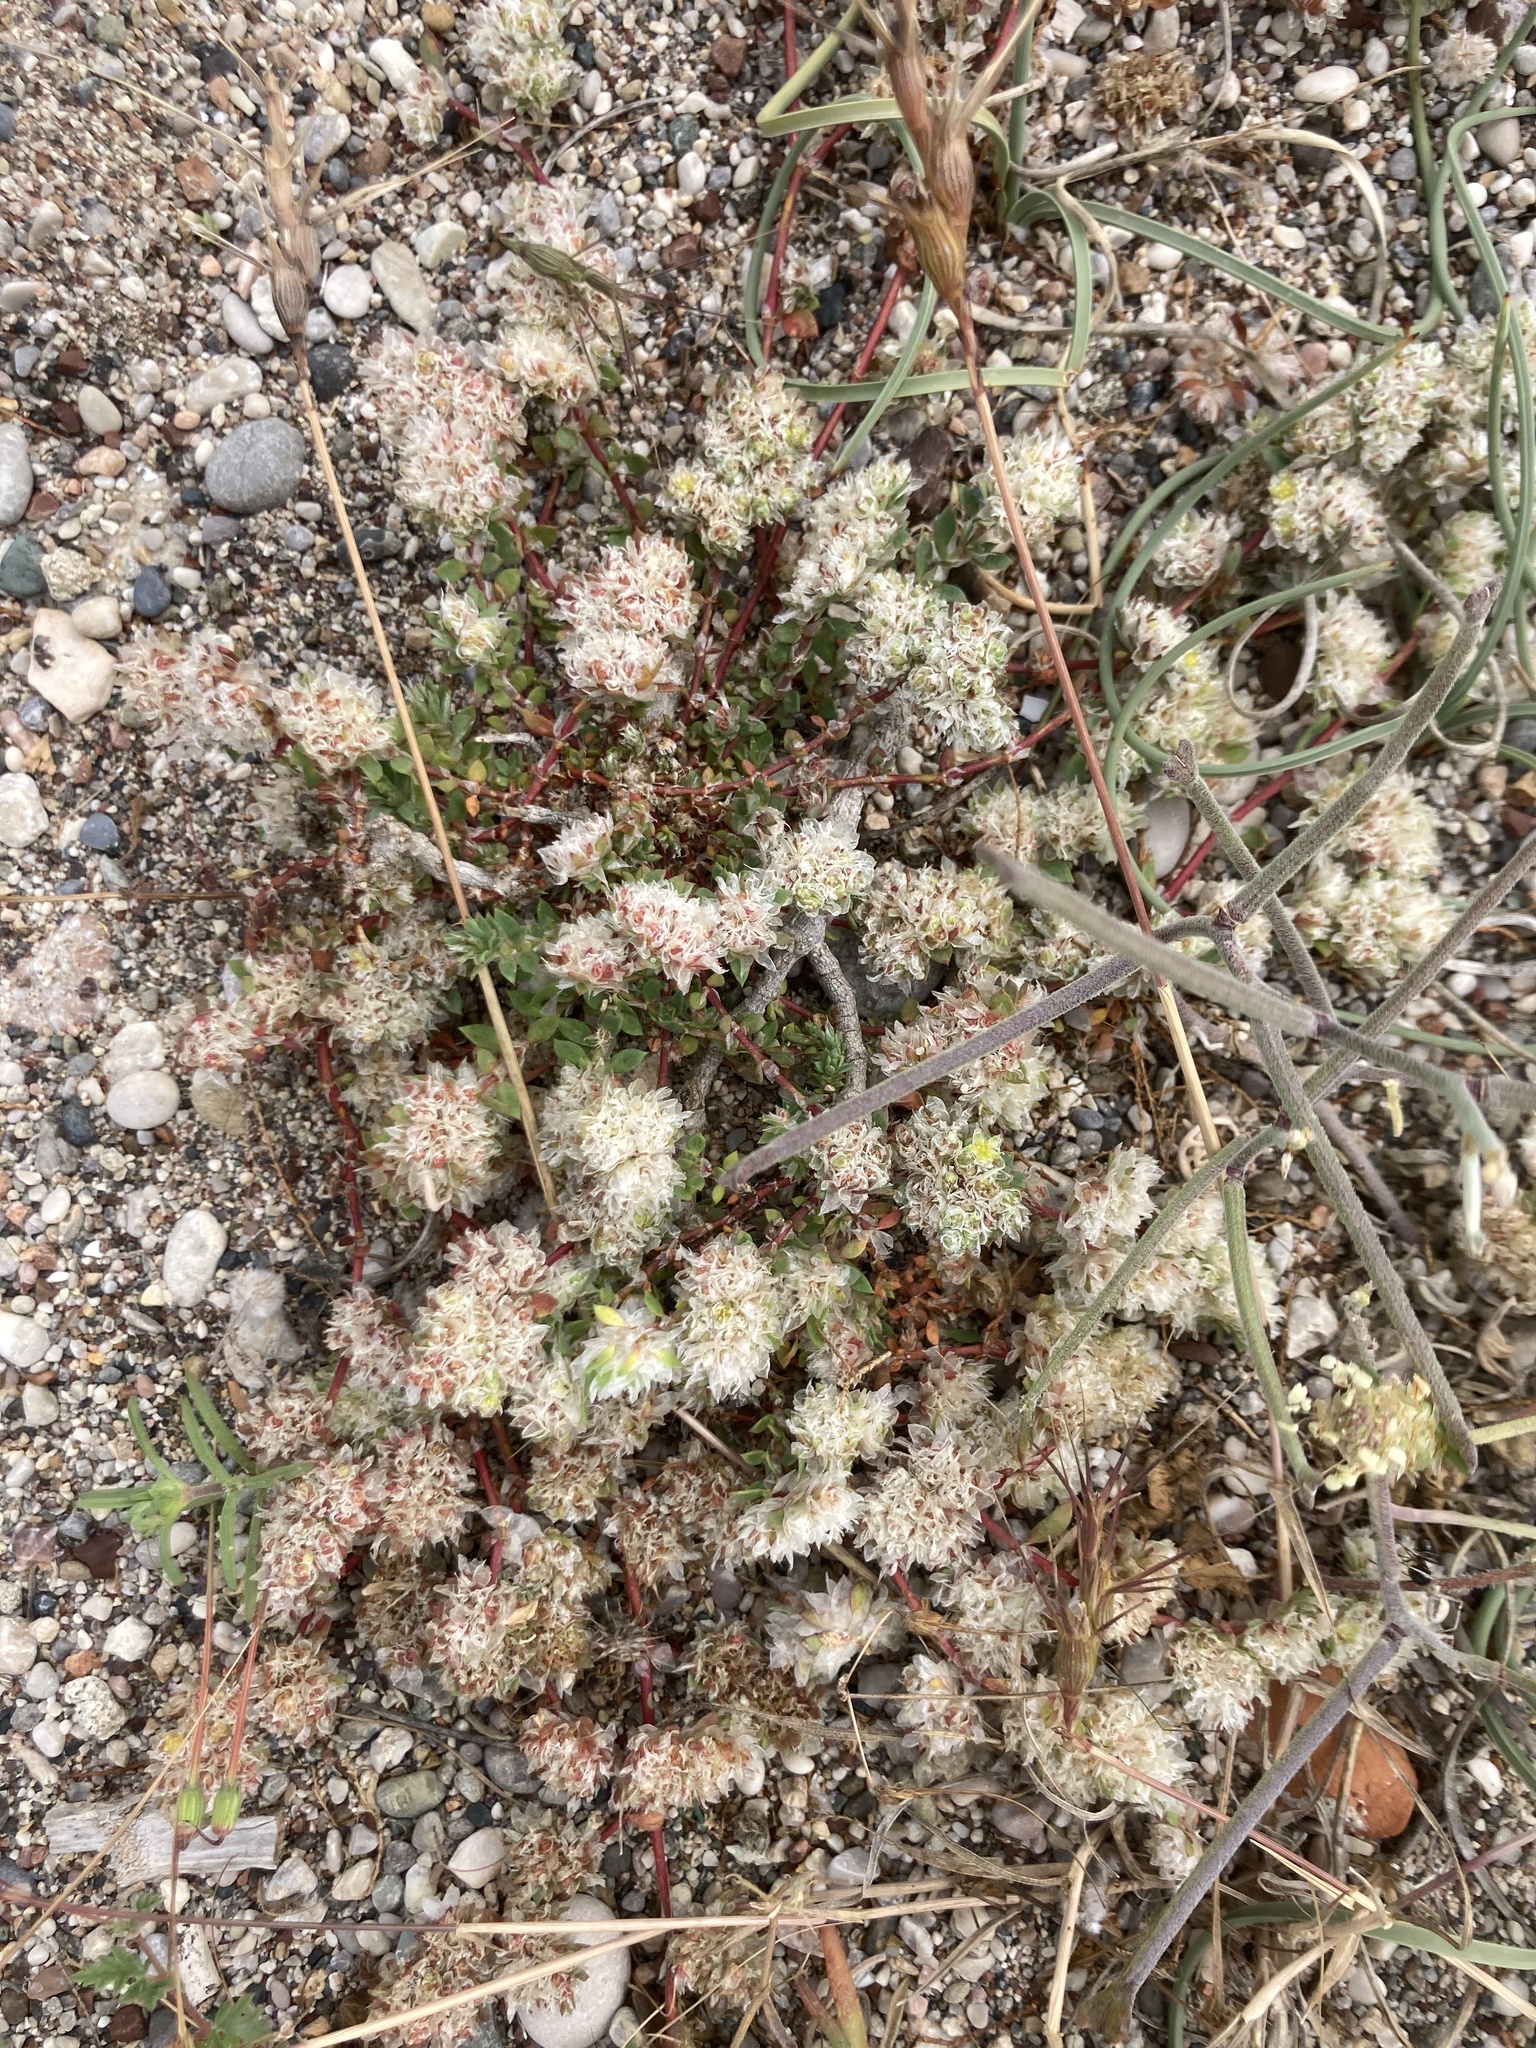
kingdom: Plantae
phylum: Tracheophyta
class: Magnoliopsida
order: Caryophyllales
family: Caryophyllaceae
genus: Paronychia
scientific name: Paronychia argentea
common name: Silver nailroot
